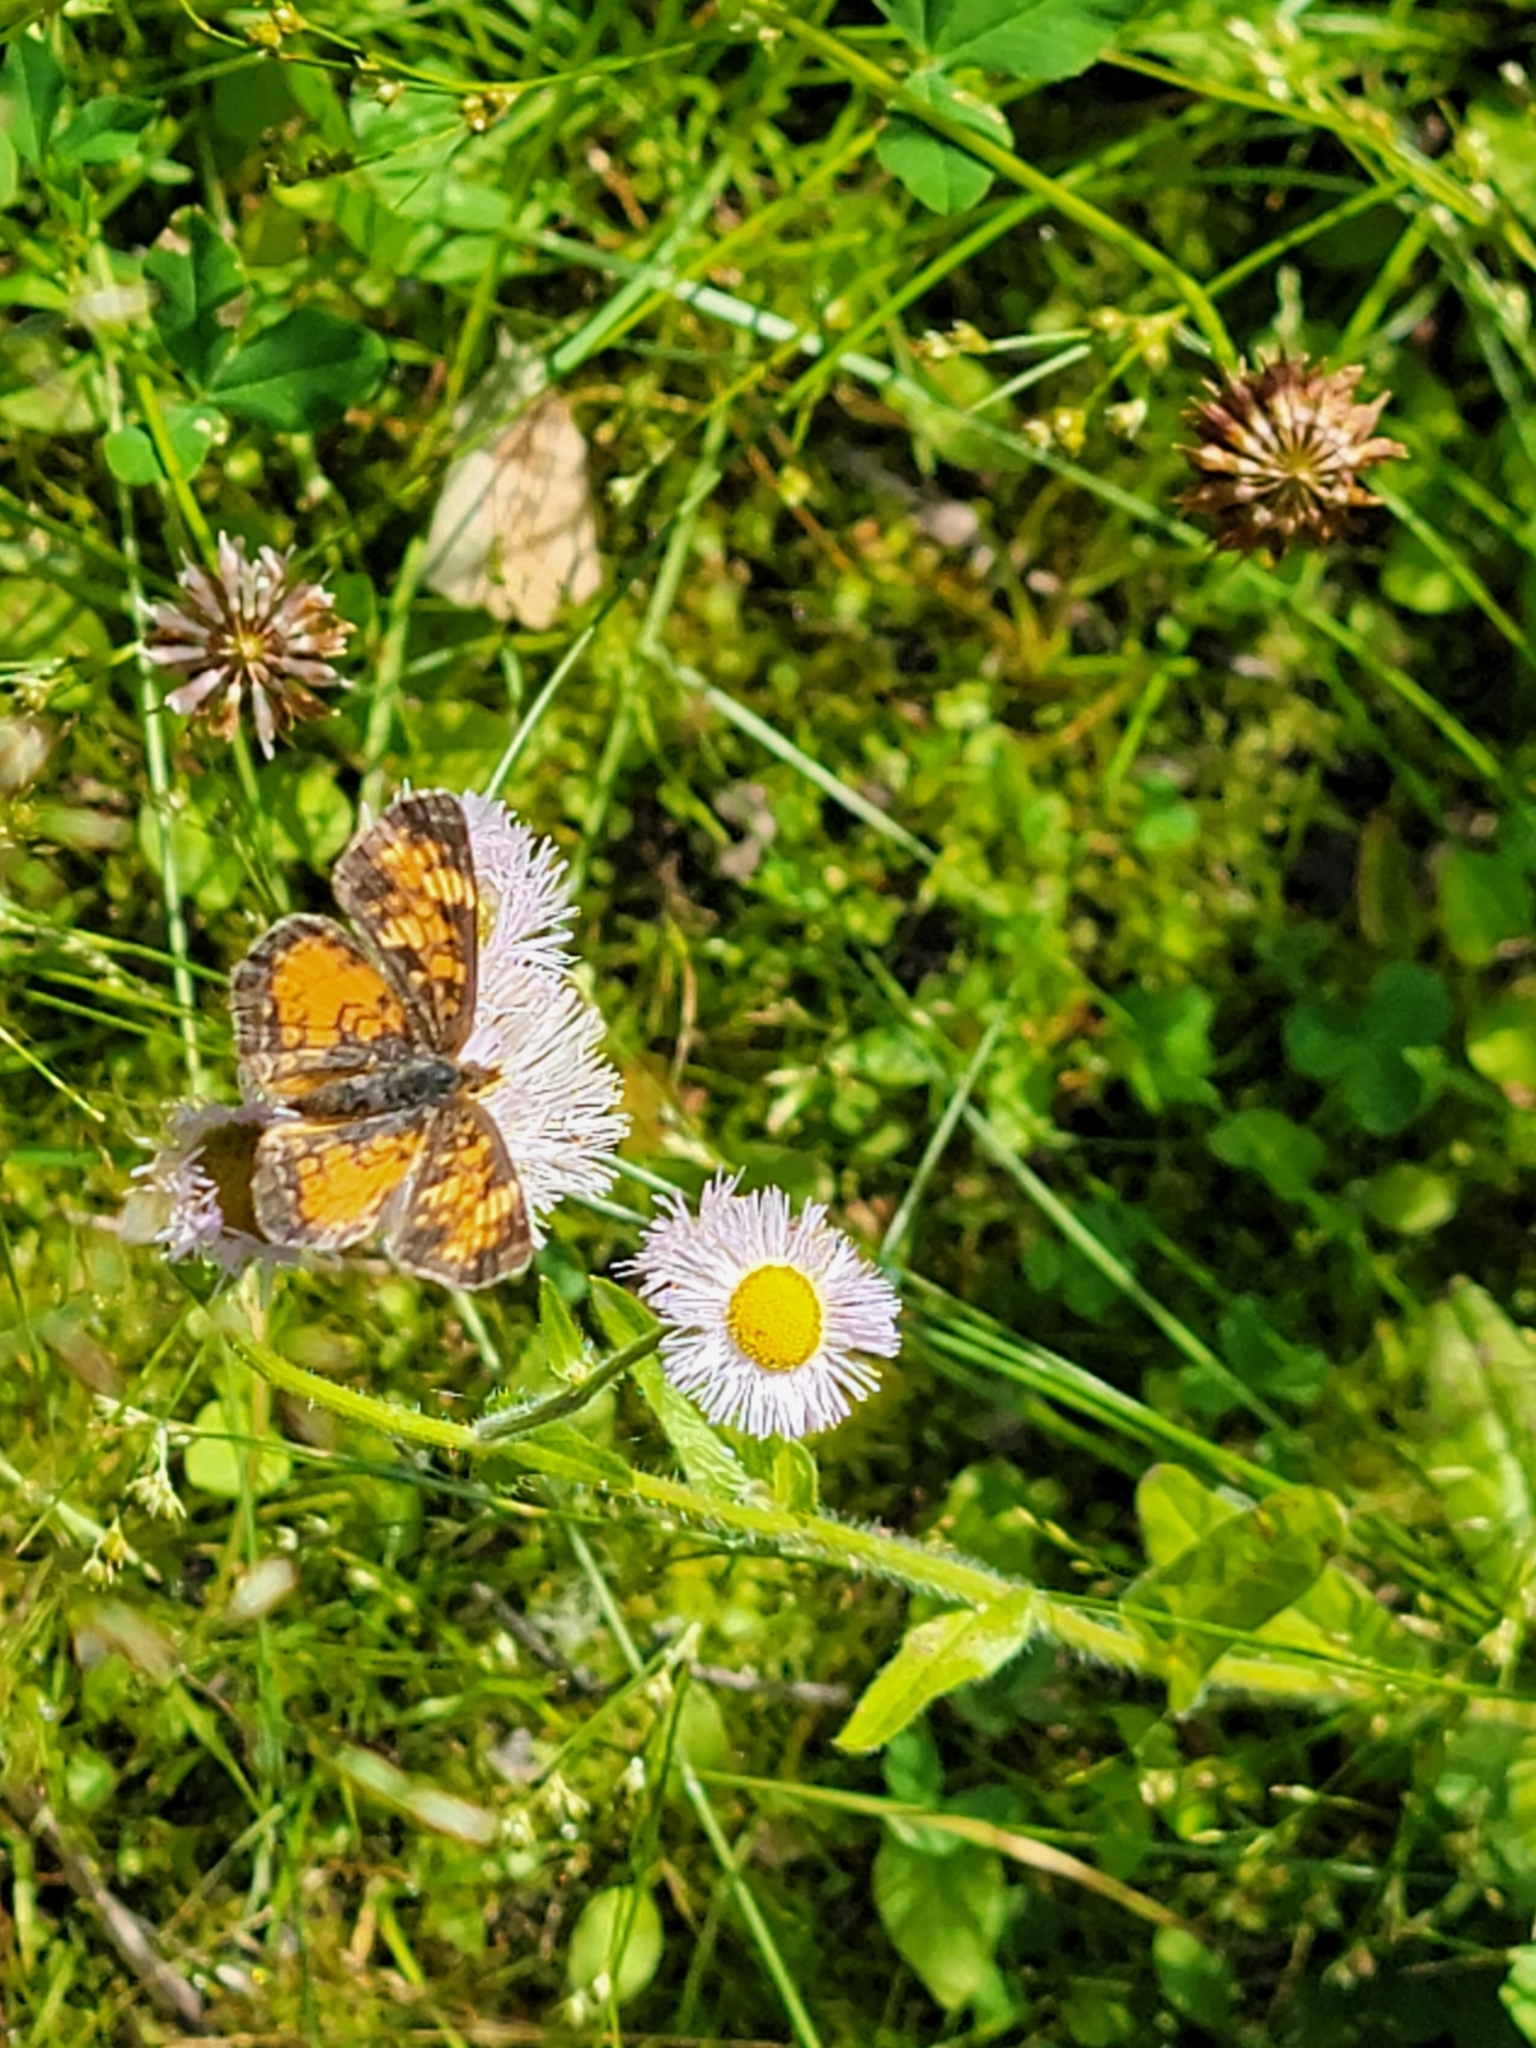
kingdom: Animalia
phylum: Arthropoda
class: Insecta
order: Lepidoptera
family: Nymphalidae
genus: Phyciodes
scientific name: Phyciodes tharos
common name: Pearl crescent
